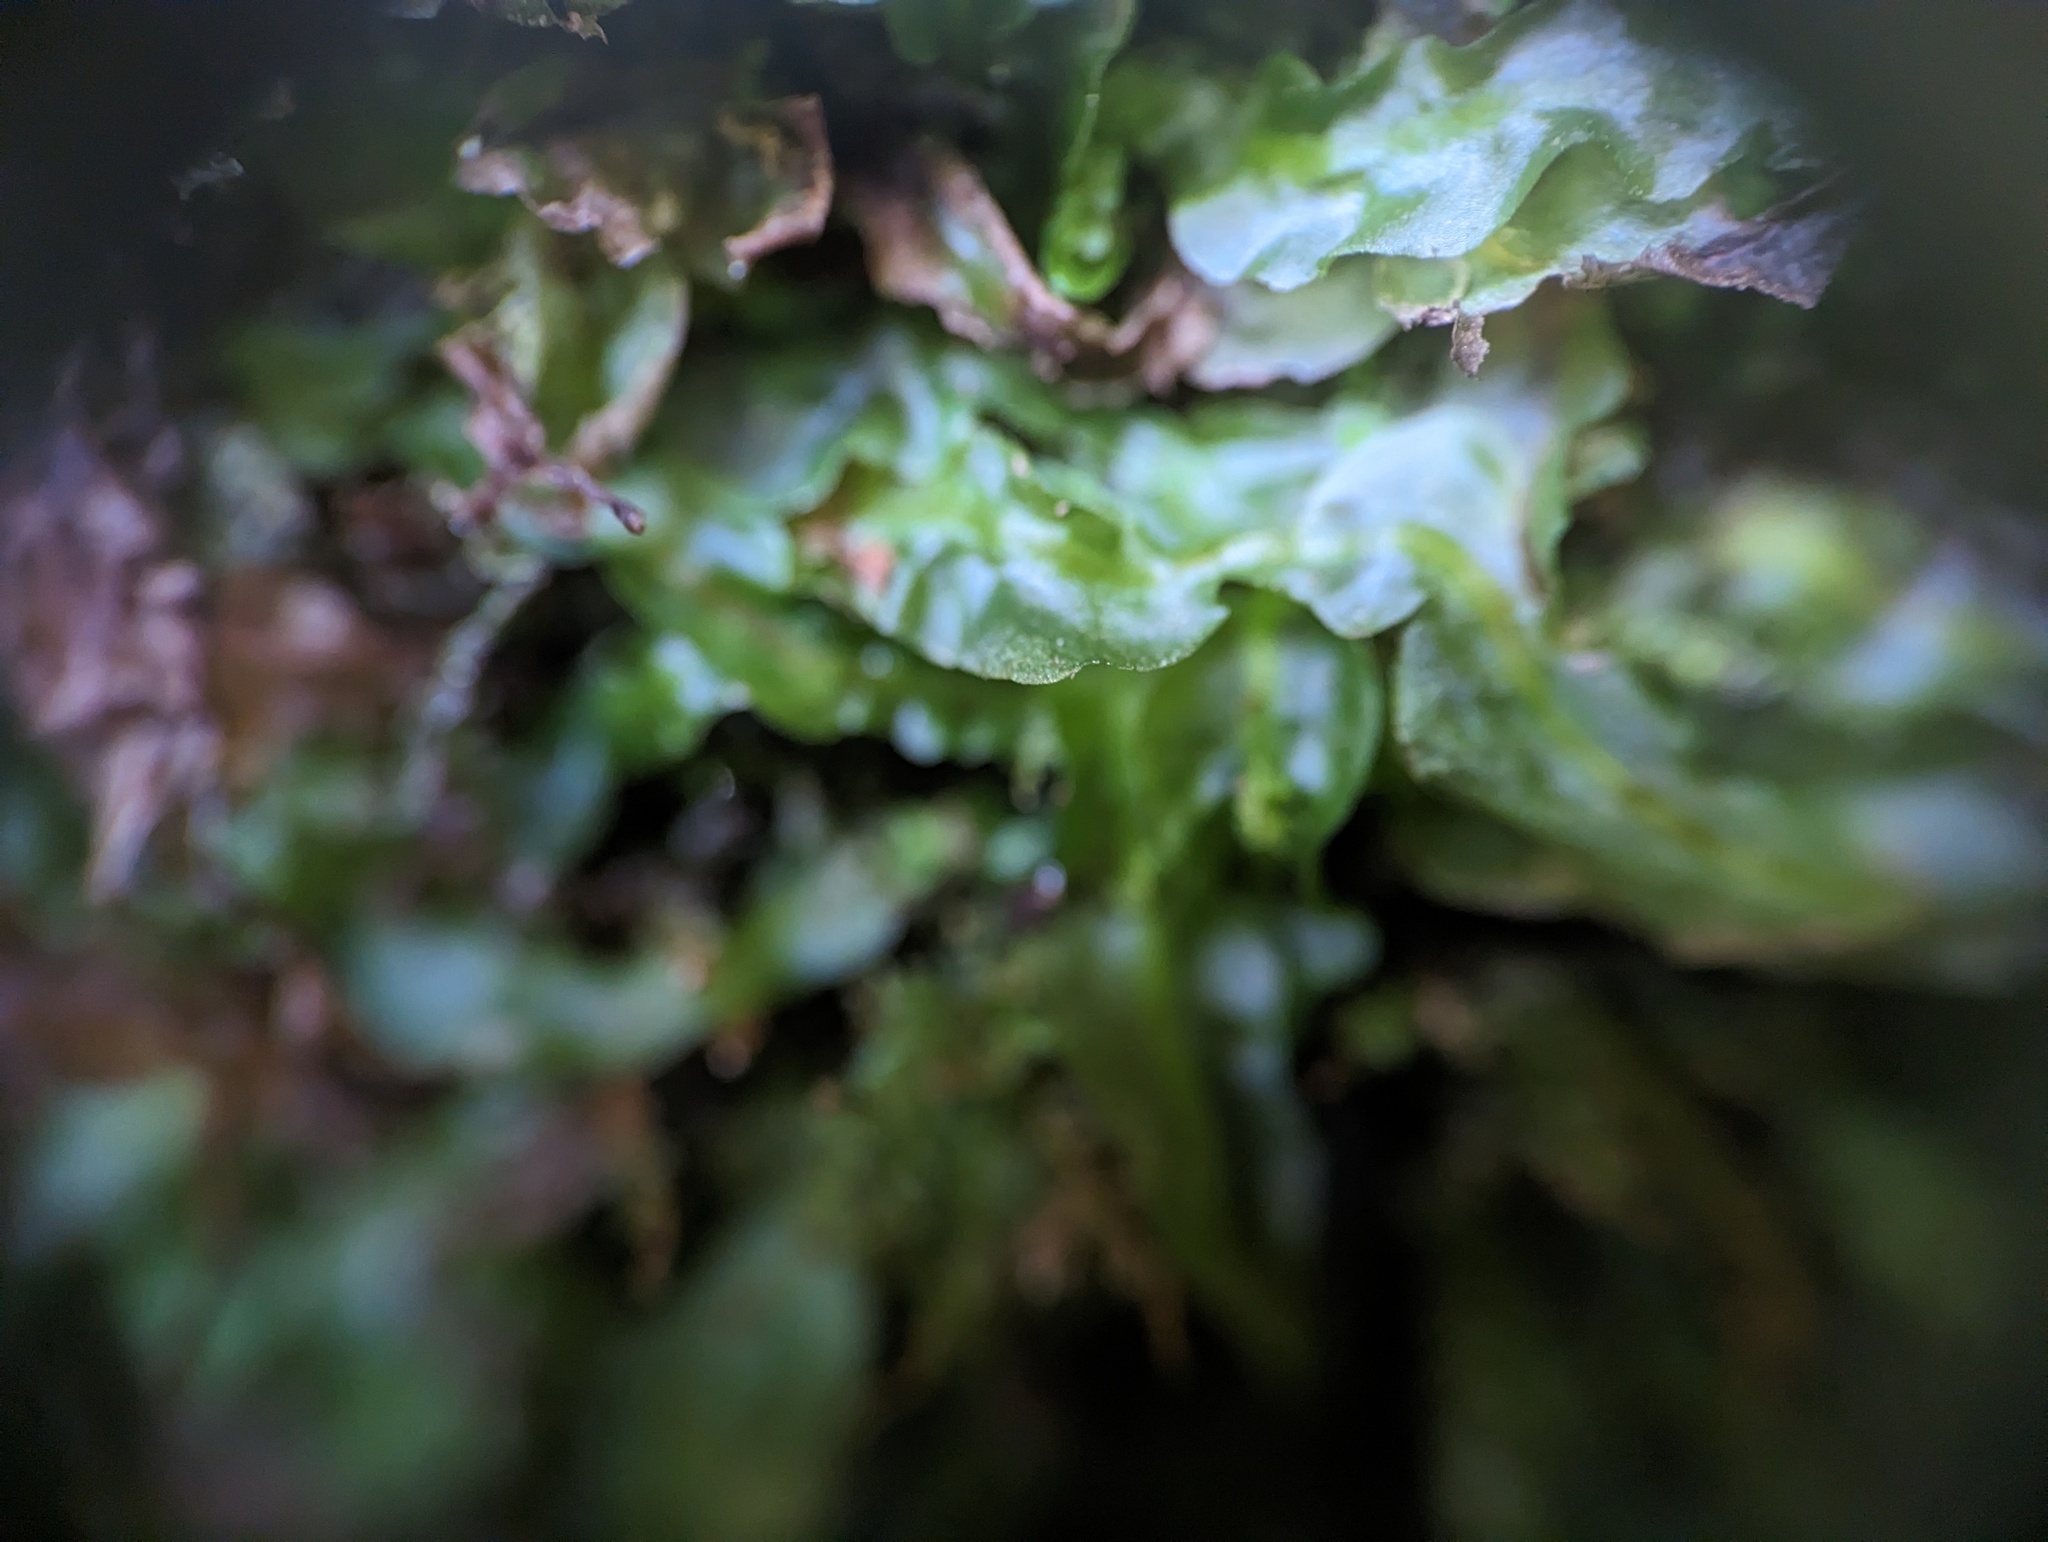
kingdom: Plantae
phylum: Marchantiophyta
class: Jungermanniopsida
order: Pallaviciniales
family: Pallaviciniaceae
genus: Pallavicinia
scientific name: Pallavicinia lyellii
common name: Veilwort
